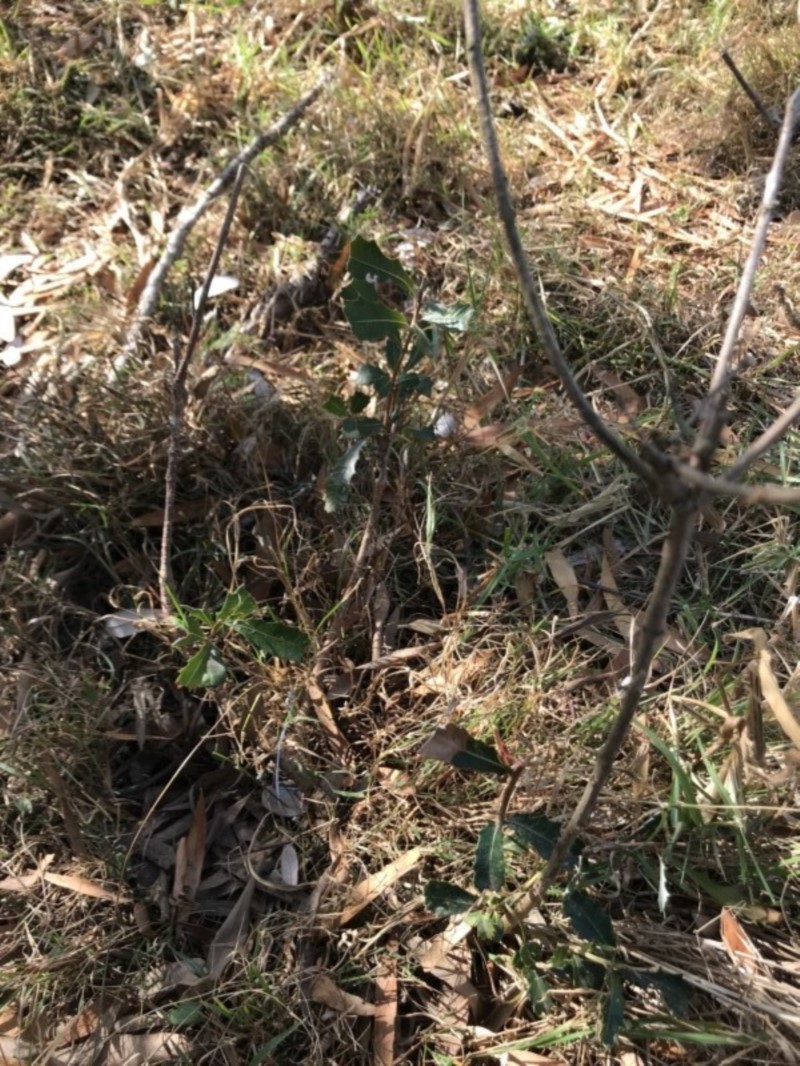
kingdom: Plantae
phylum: Tracheophyta
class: Magnoliopsida
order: Proteales
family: Proteaceae
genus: Banksia
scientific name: Banksia integrifolia
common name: White-honeysuckle
